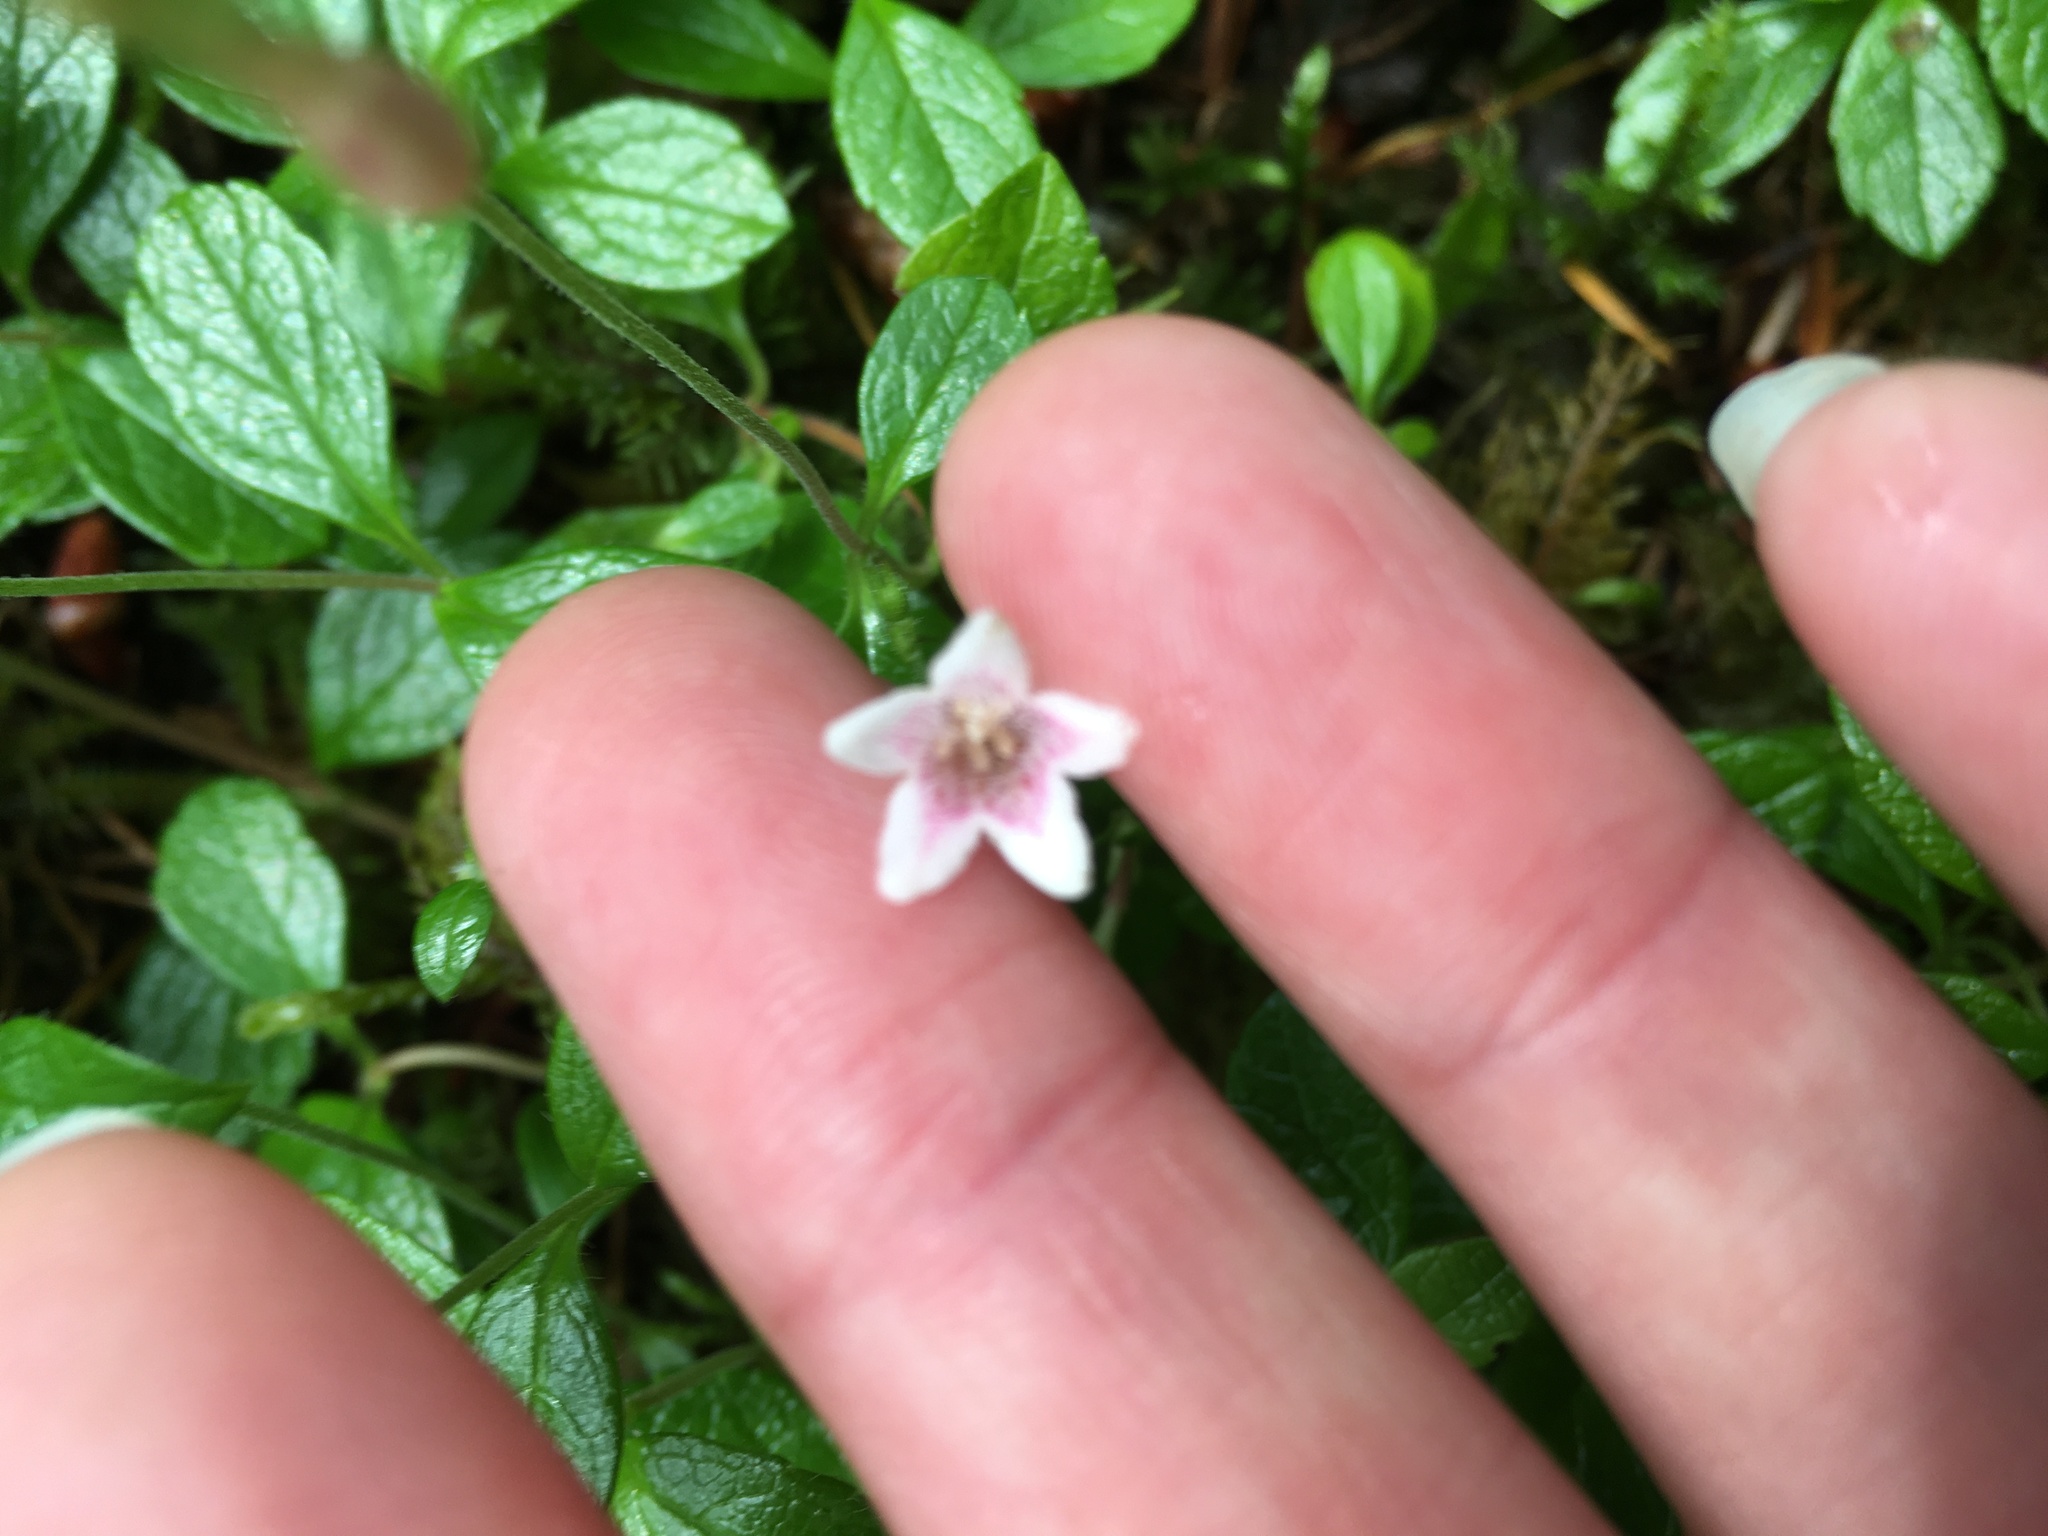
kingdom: Plantae
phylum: Tracheophyta
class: Magnoliopsida
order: Dipsacales
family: Caprifoliaceae
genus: Linnaea
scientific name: Linnaea borealis
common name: Twinflower
